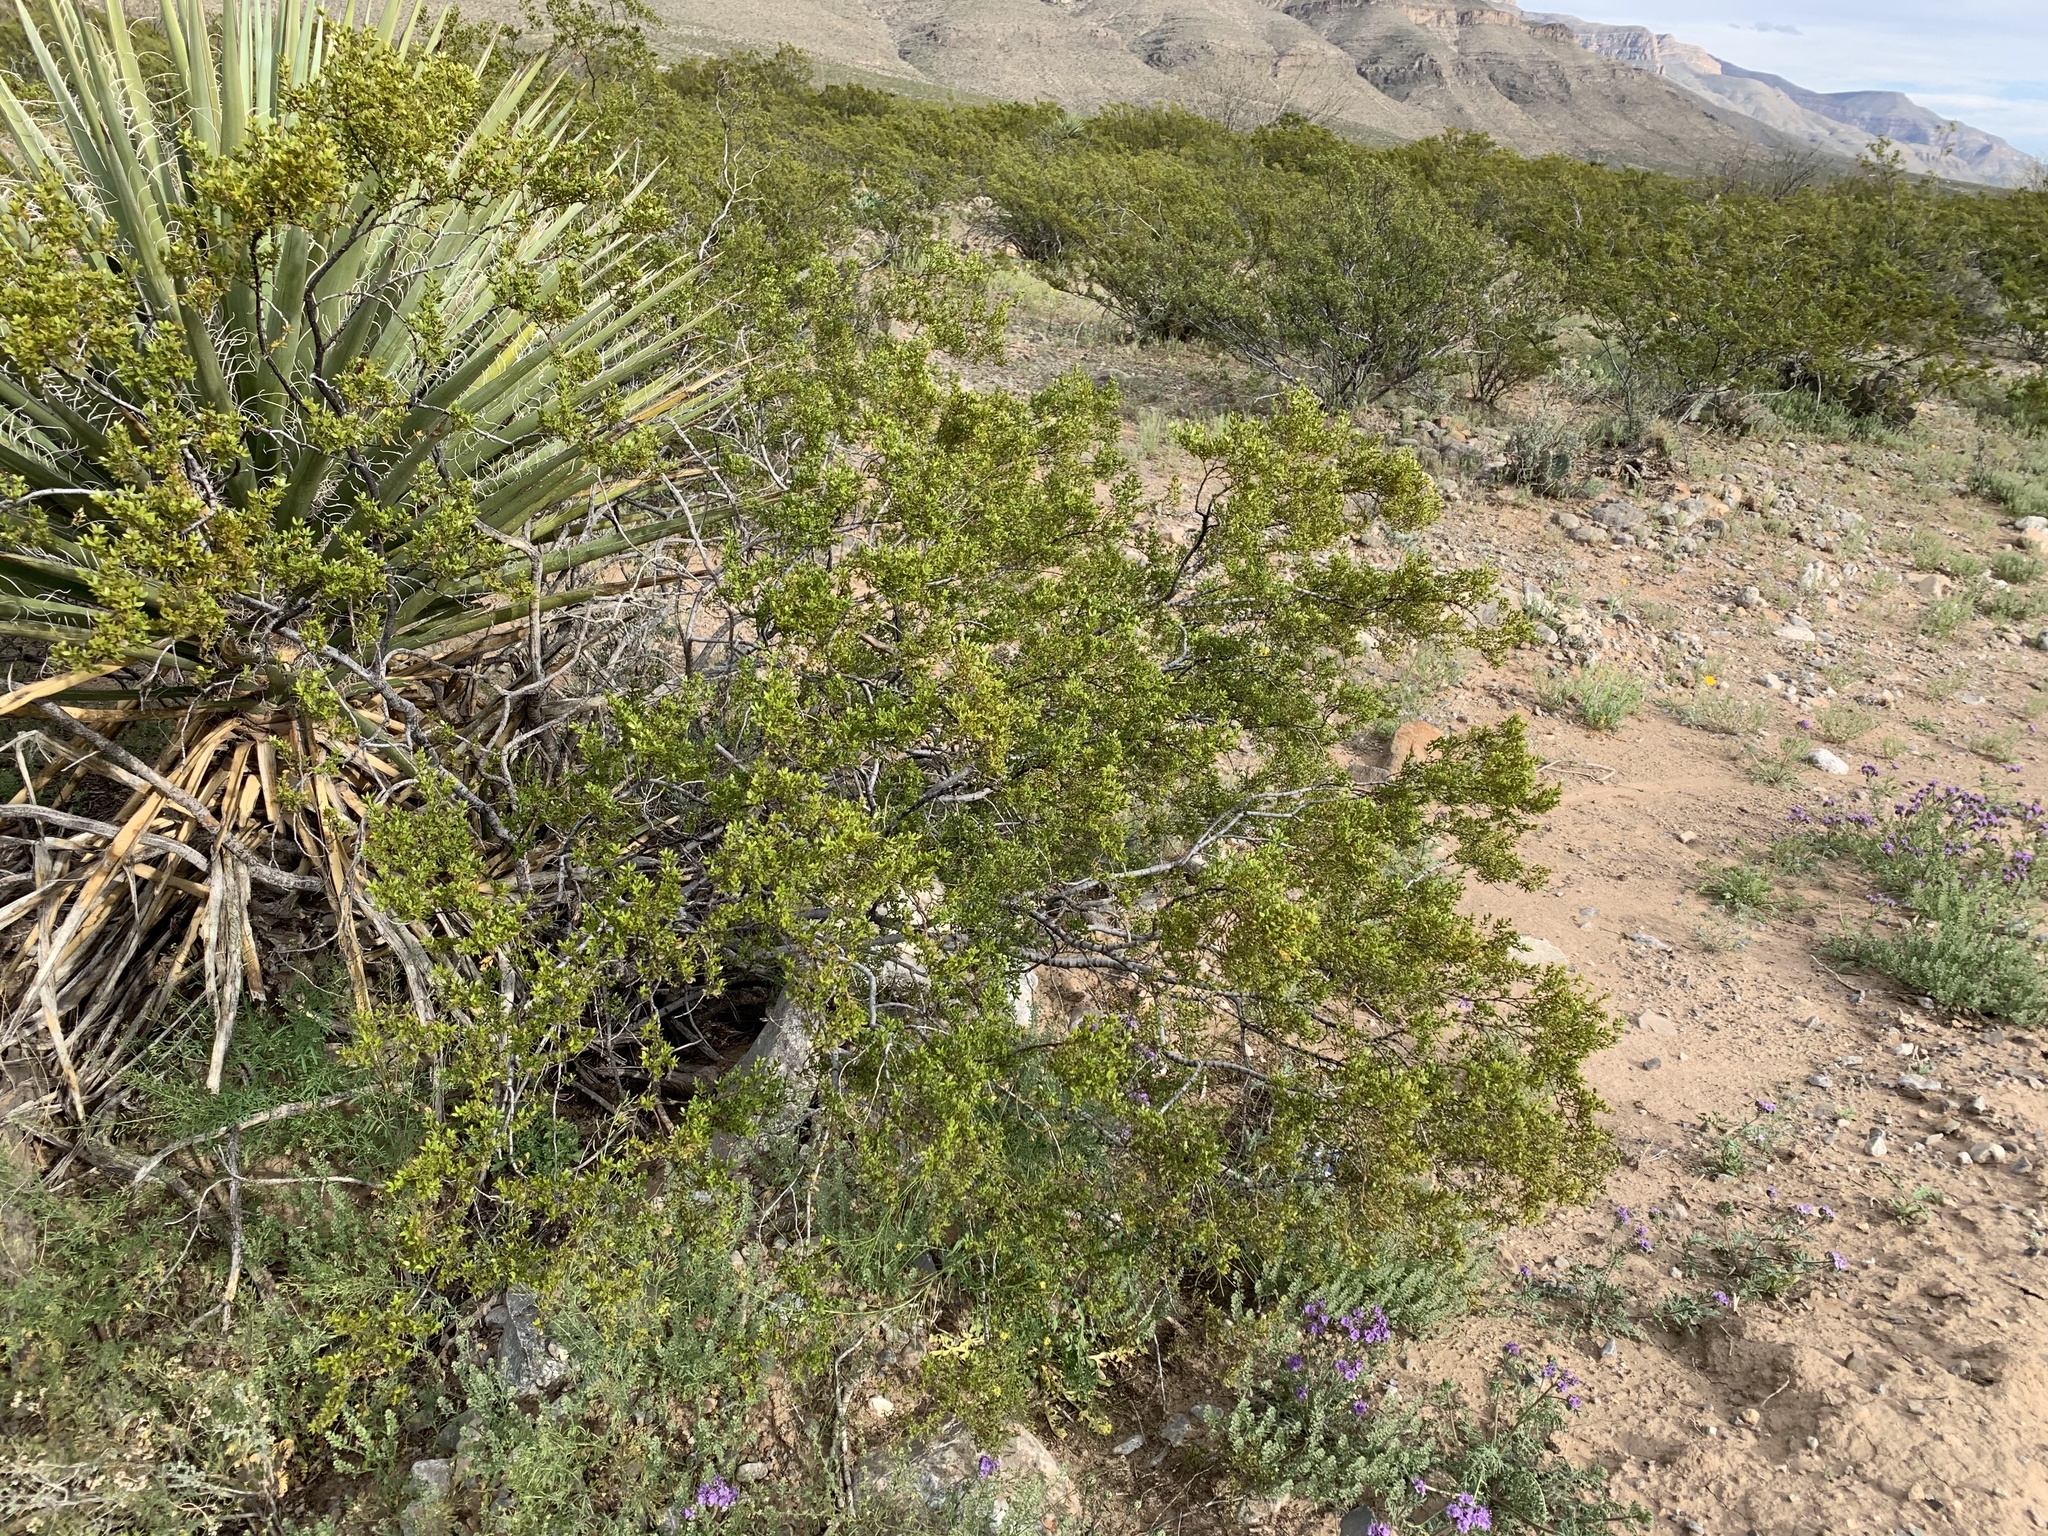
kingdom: Plantae
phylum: Tracheophyta
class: Magnoliopsida
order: Zygophyllales
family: Zygophyllaceae
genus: Larrea
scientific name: Larrea tridentata
